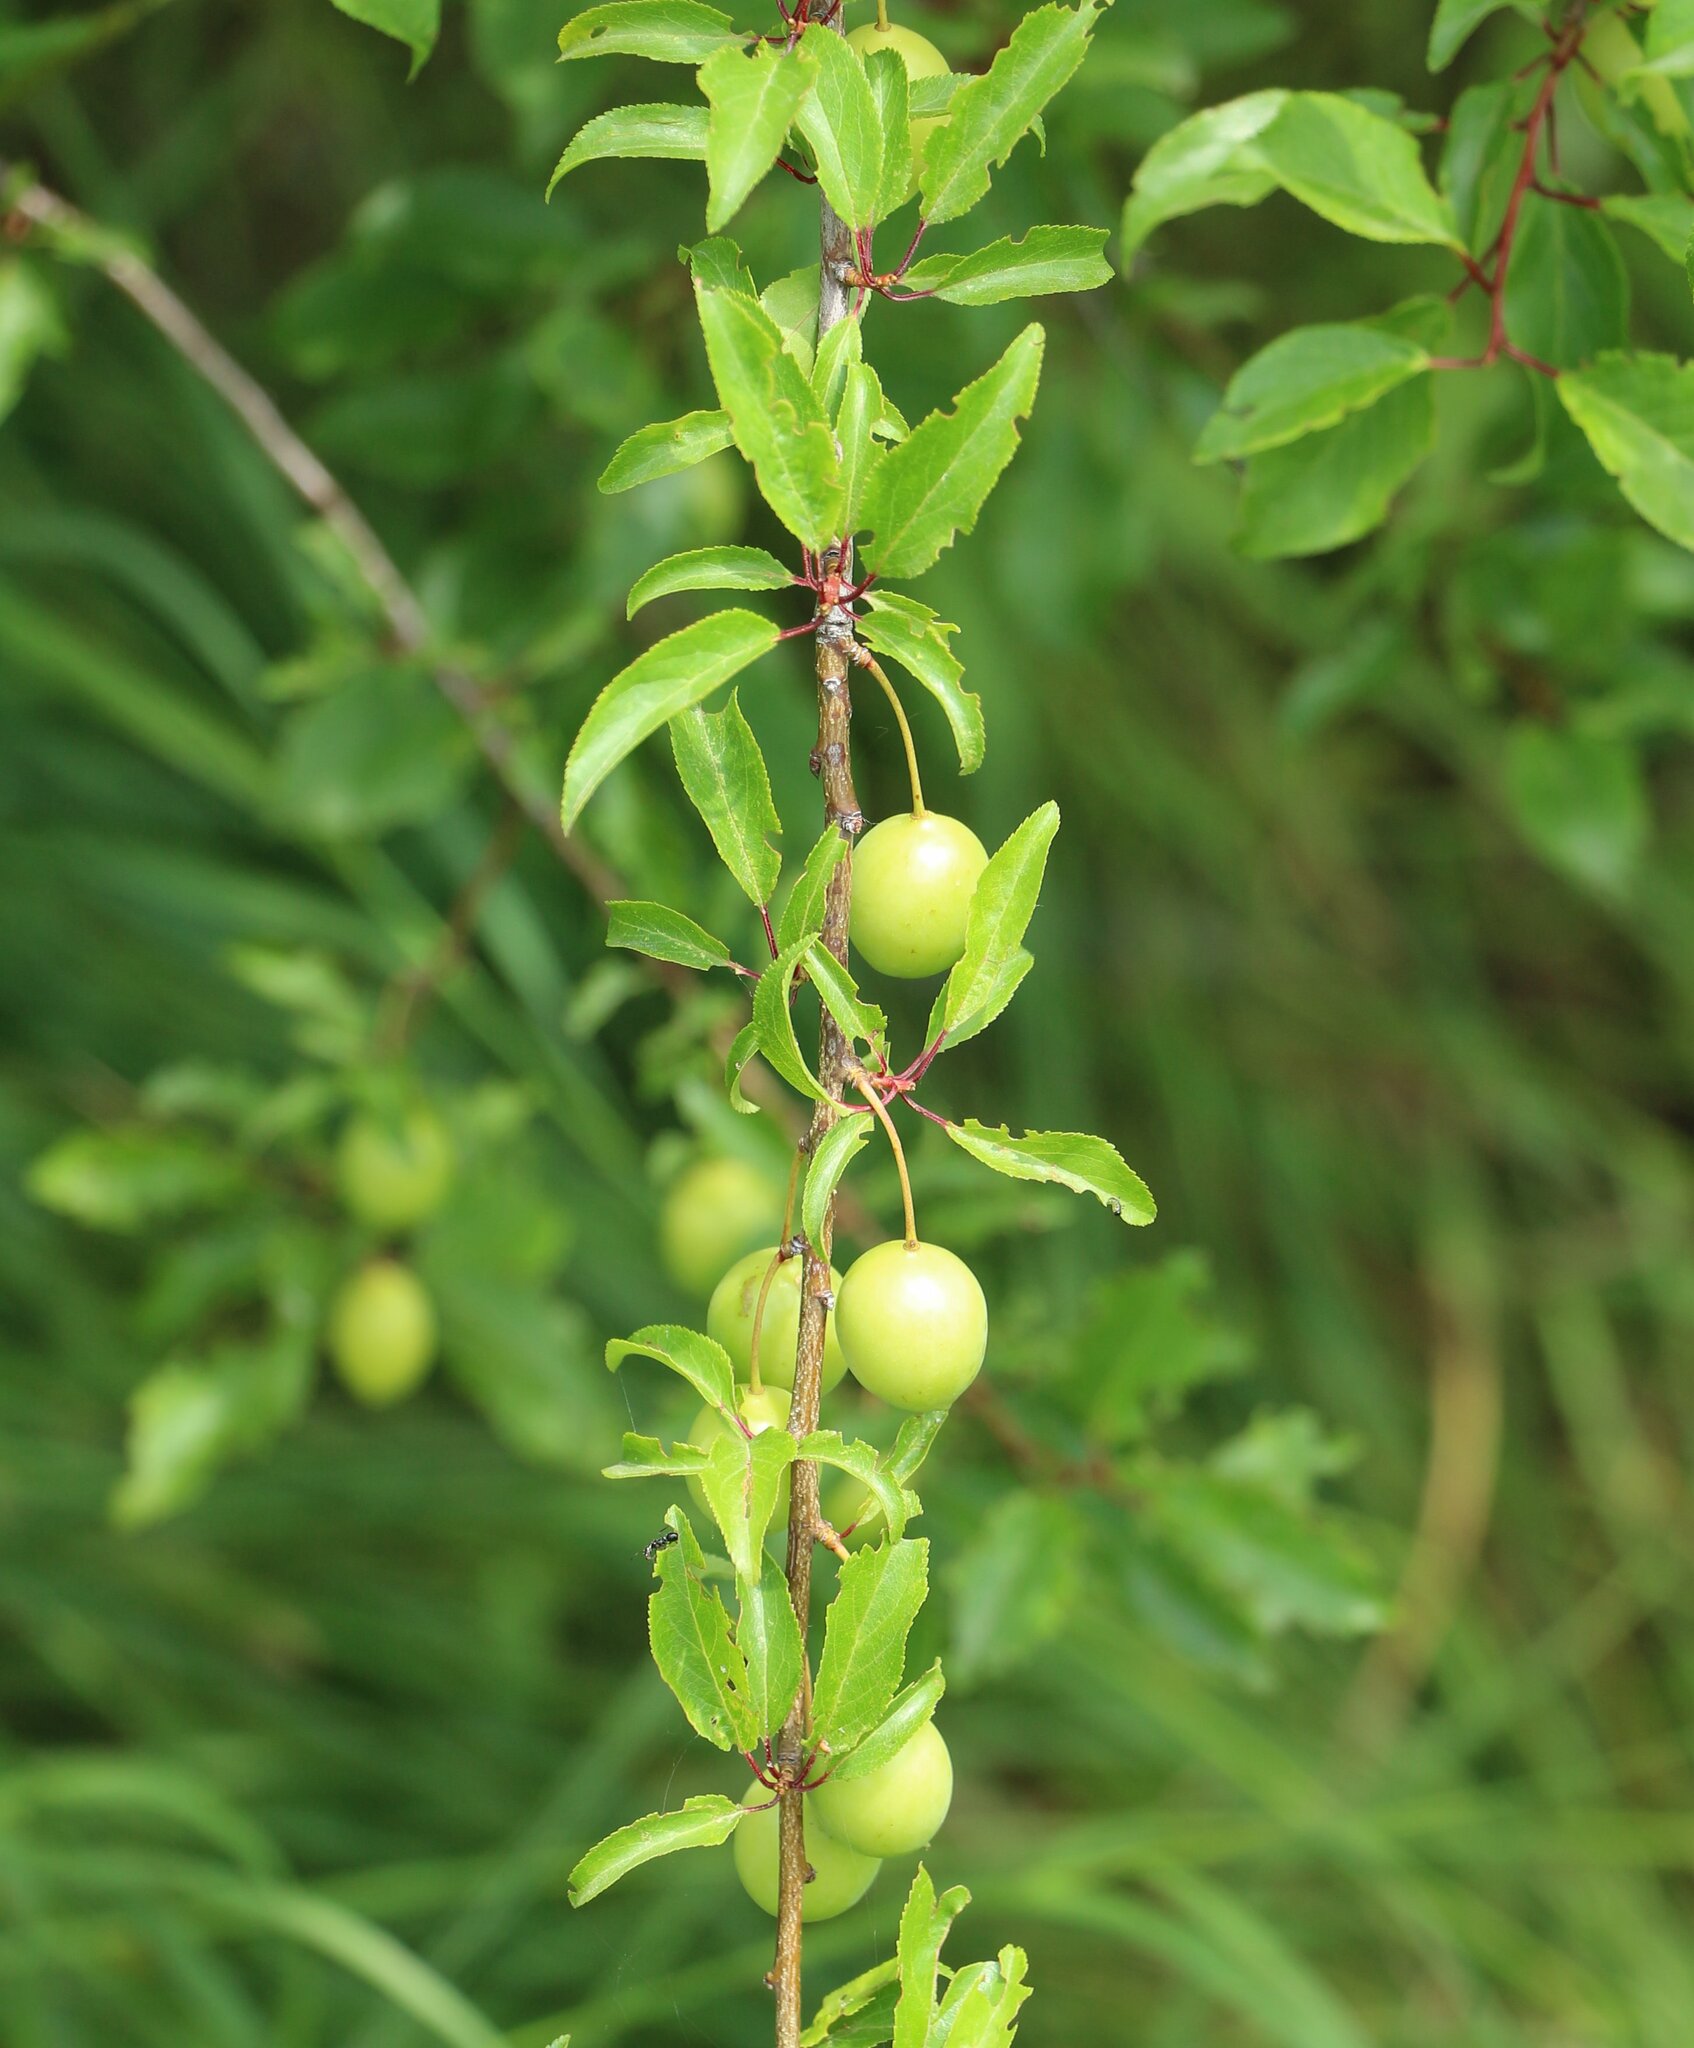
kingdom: Plantae
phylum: Tracheophyta
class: Magnoliopsida
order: Rosales
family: Rosaceae
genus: Prunus
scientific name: Prunus cerasifera
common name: Cherry plum
